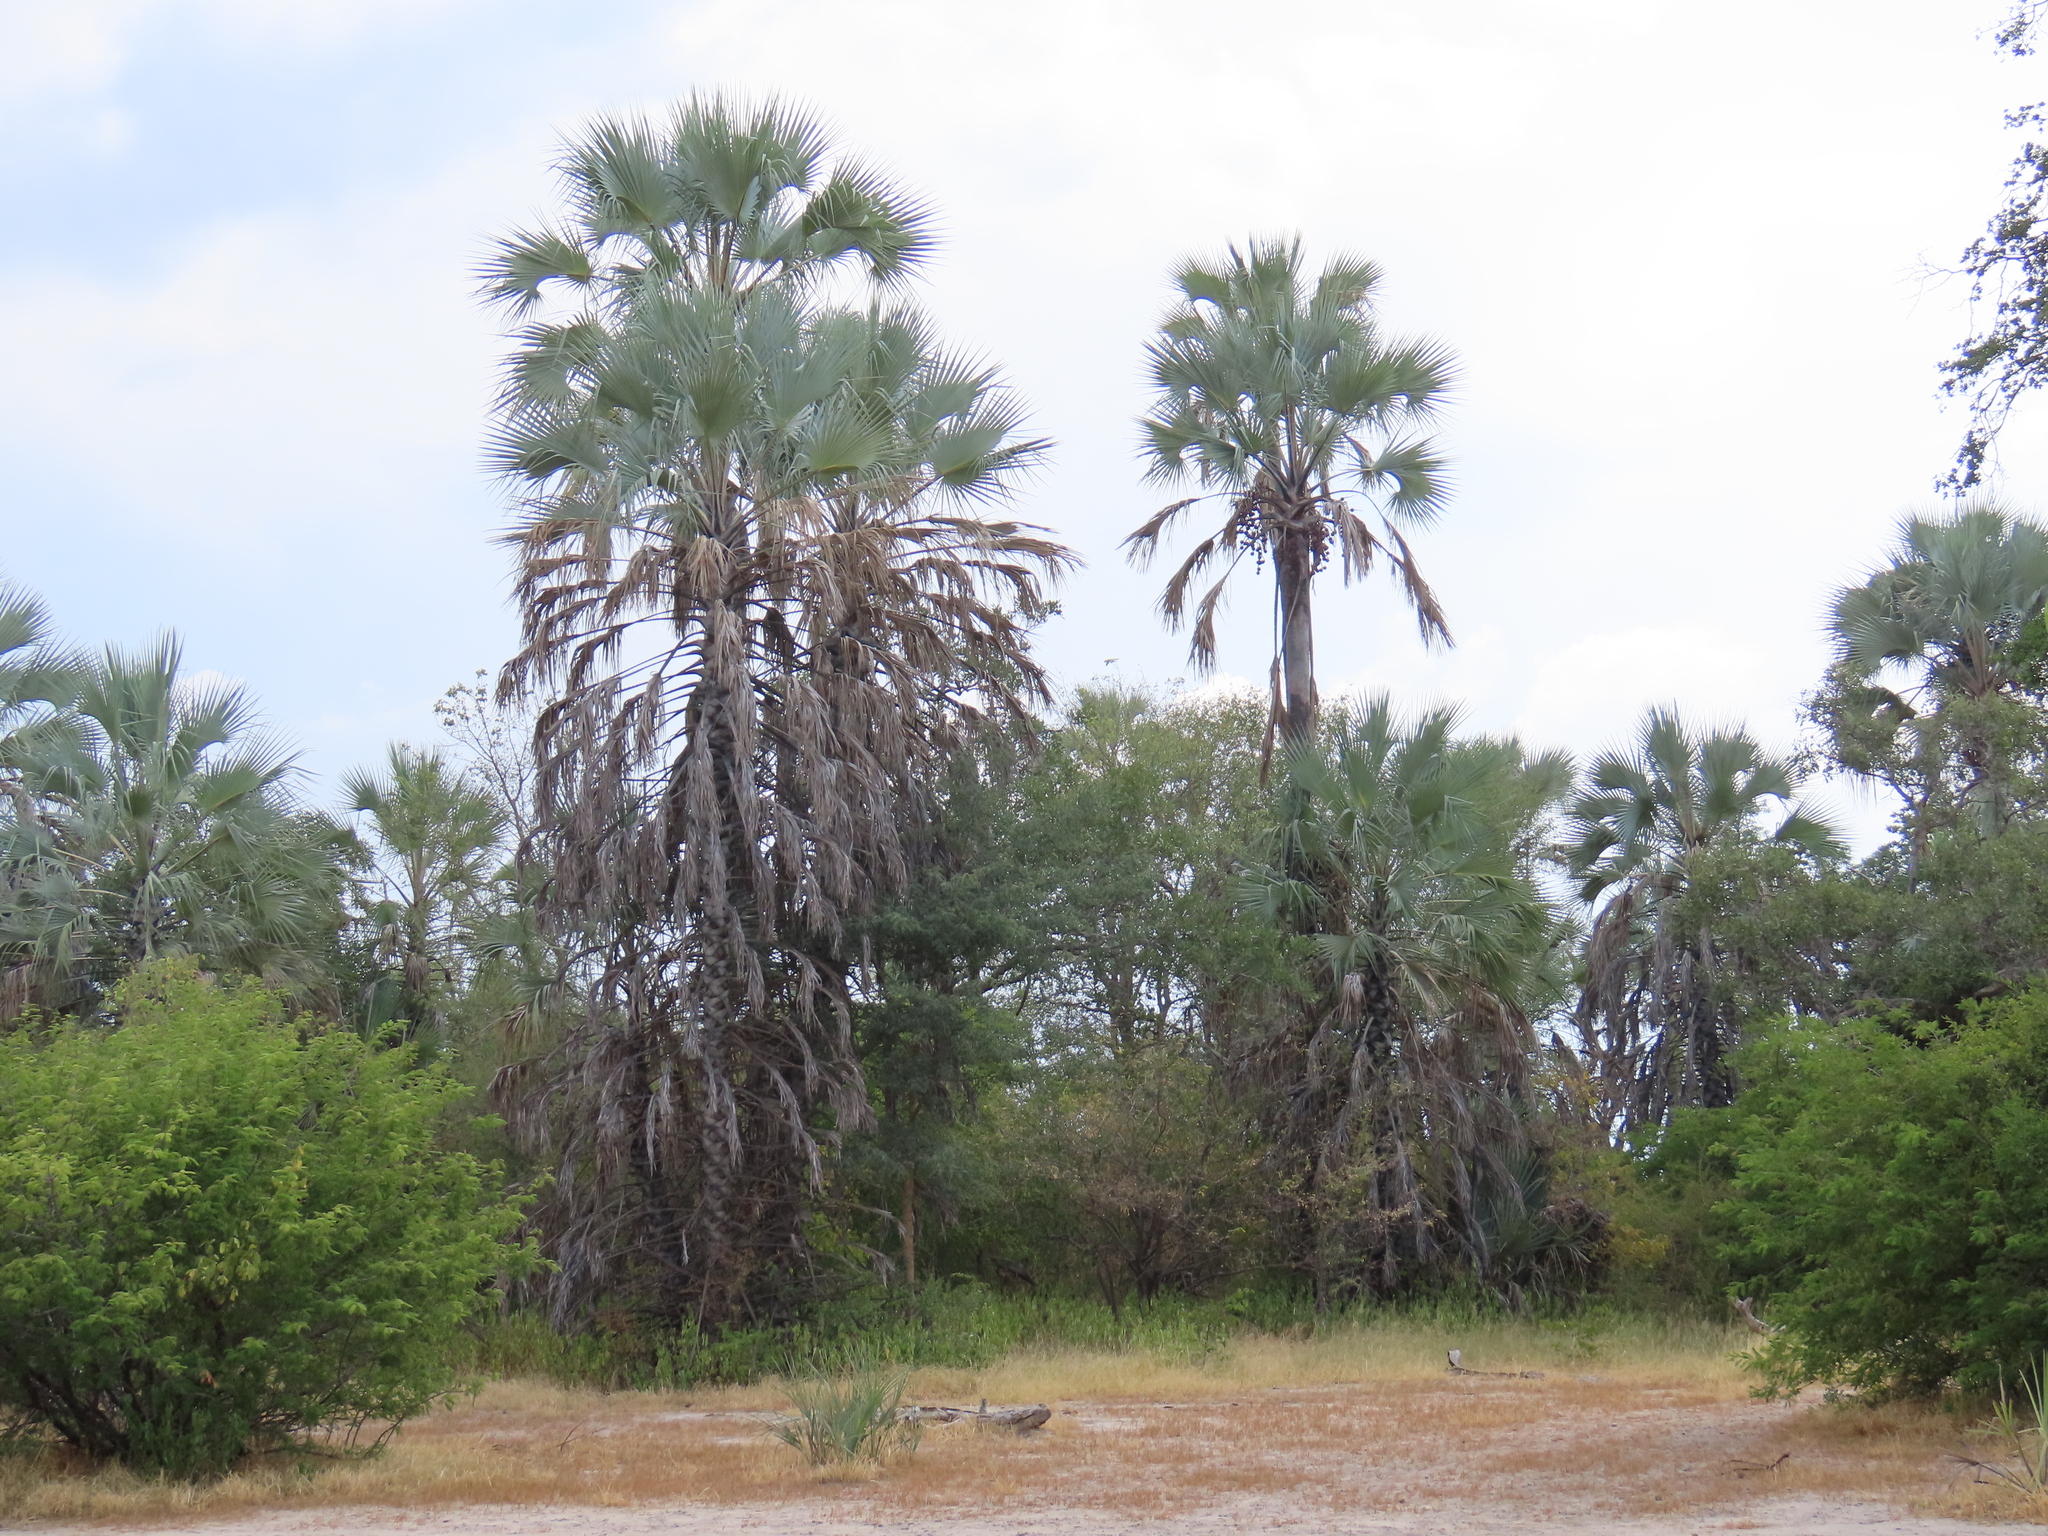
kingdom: Plantae
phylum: Tracheophyta
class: Liliopsida
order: Arecales
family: Arecaceae
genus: Hyphaene
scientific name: Hyphaene petersiana
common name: African ivory nut palm
